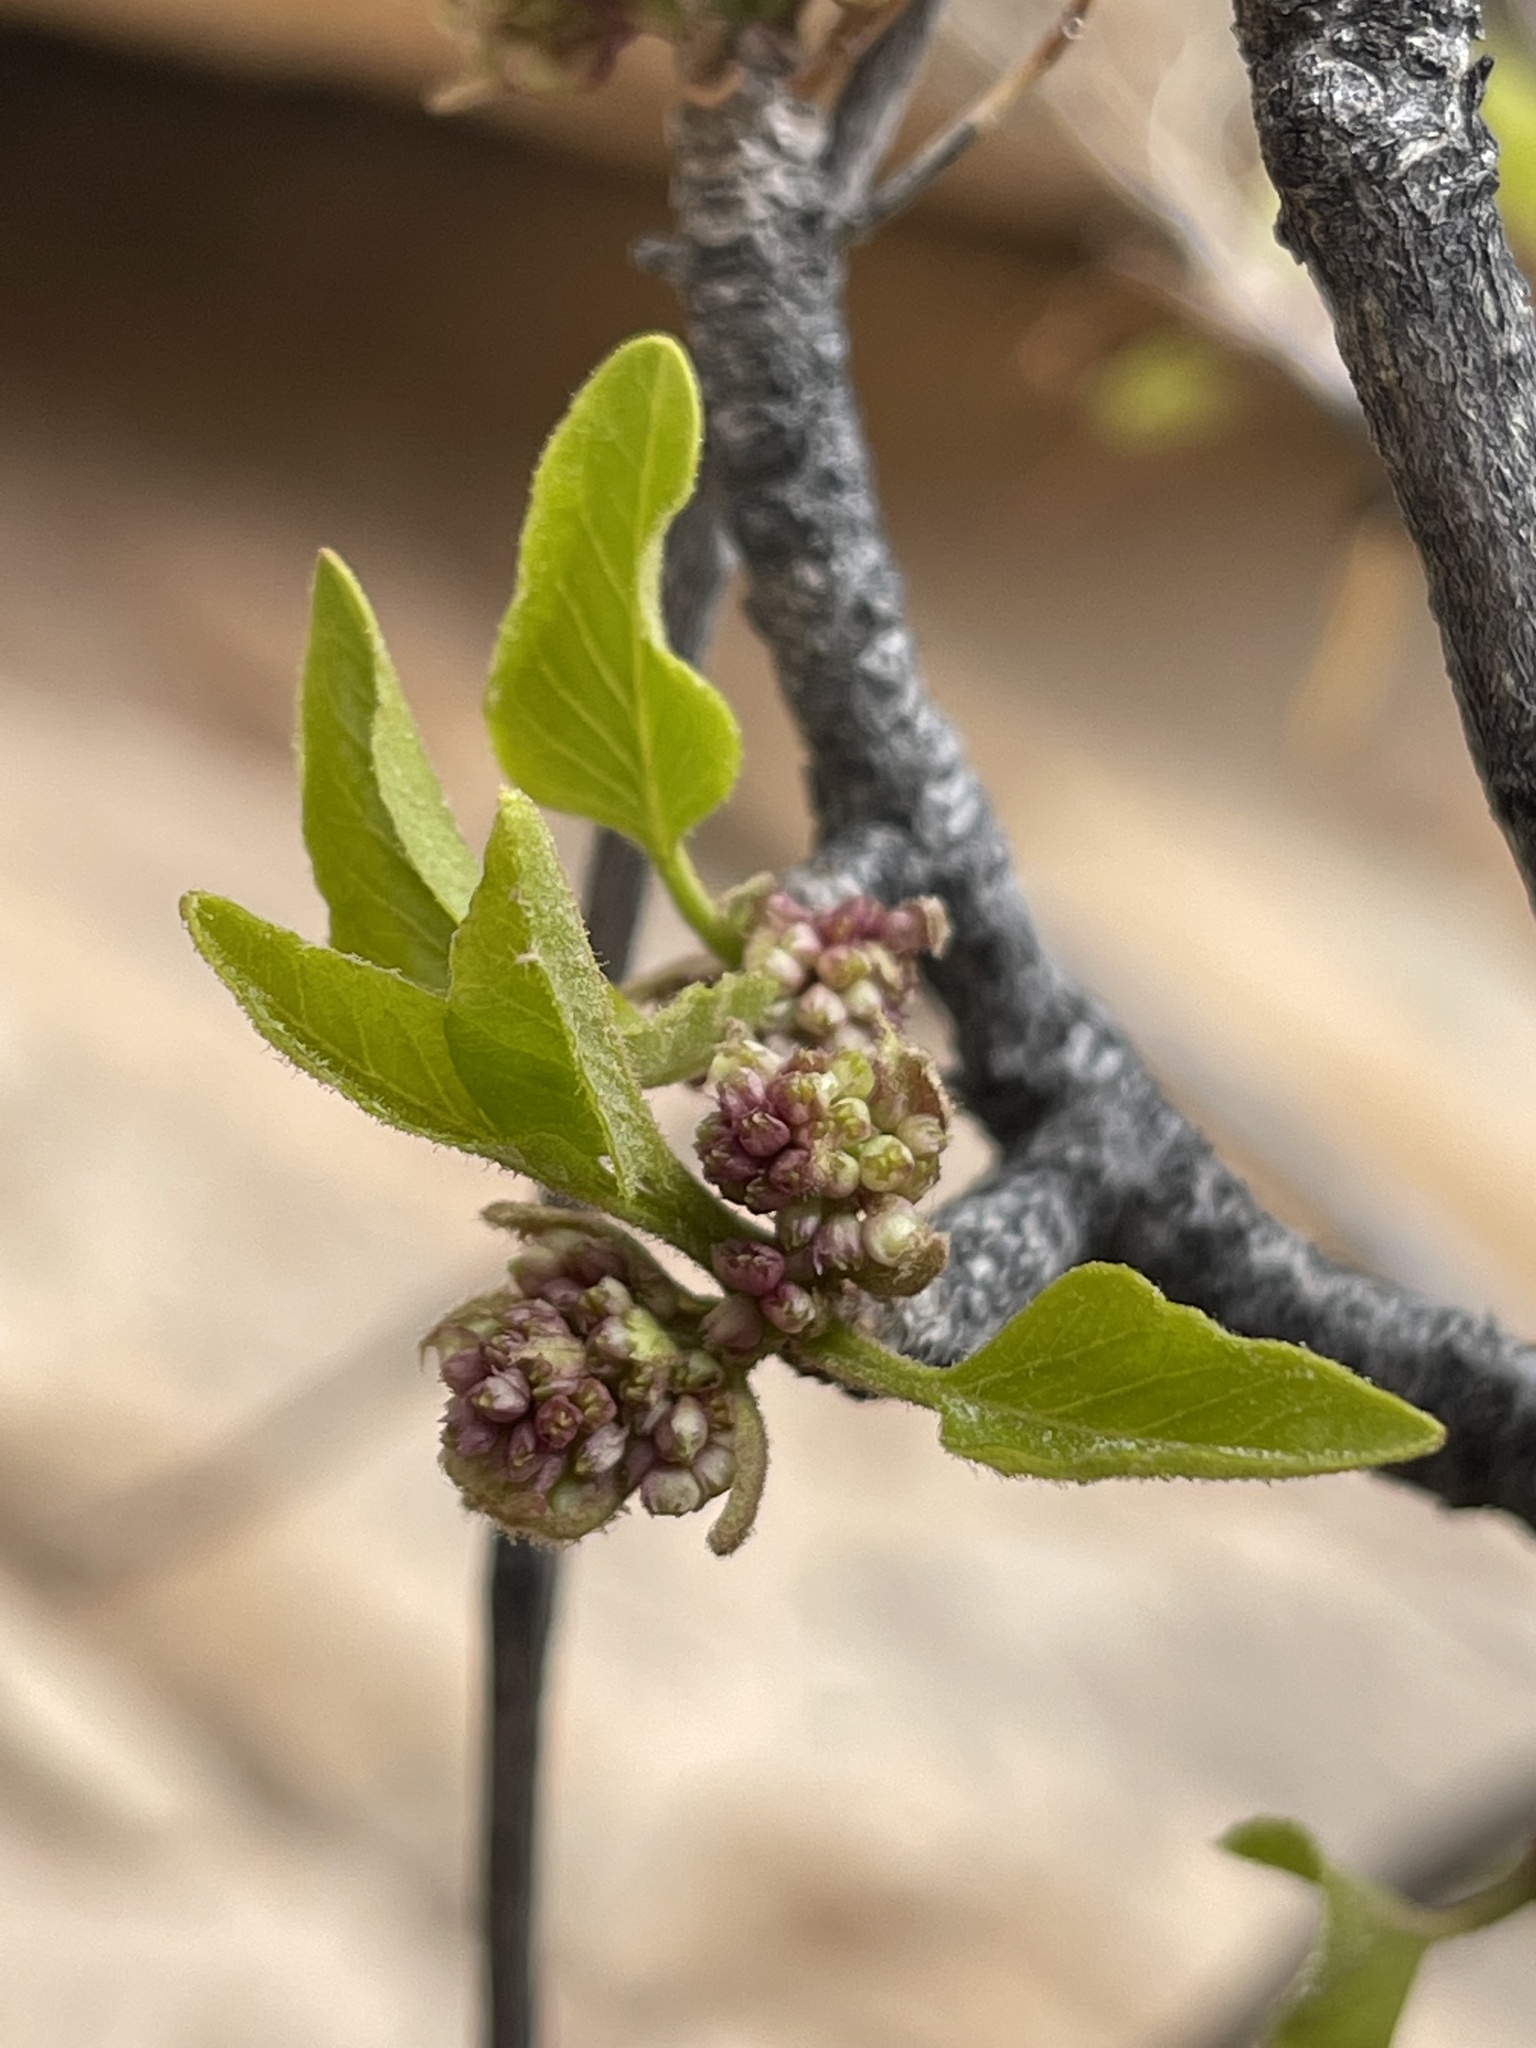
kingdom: Plantae
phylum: Tracheophyta
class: Magnoliopsida
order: Lamiales
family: Oleaceae
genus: Fraxinus
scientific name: Fraxinus anomala
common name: Utah ash
